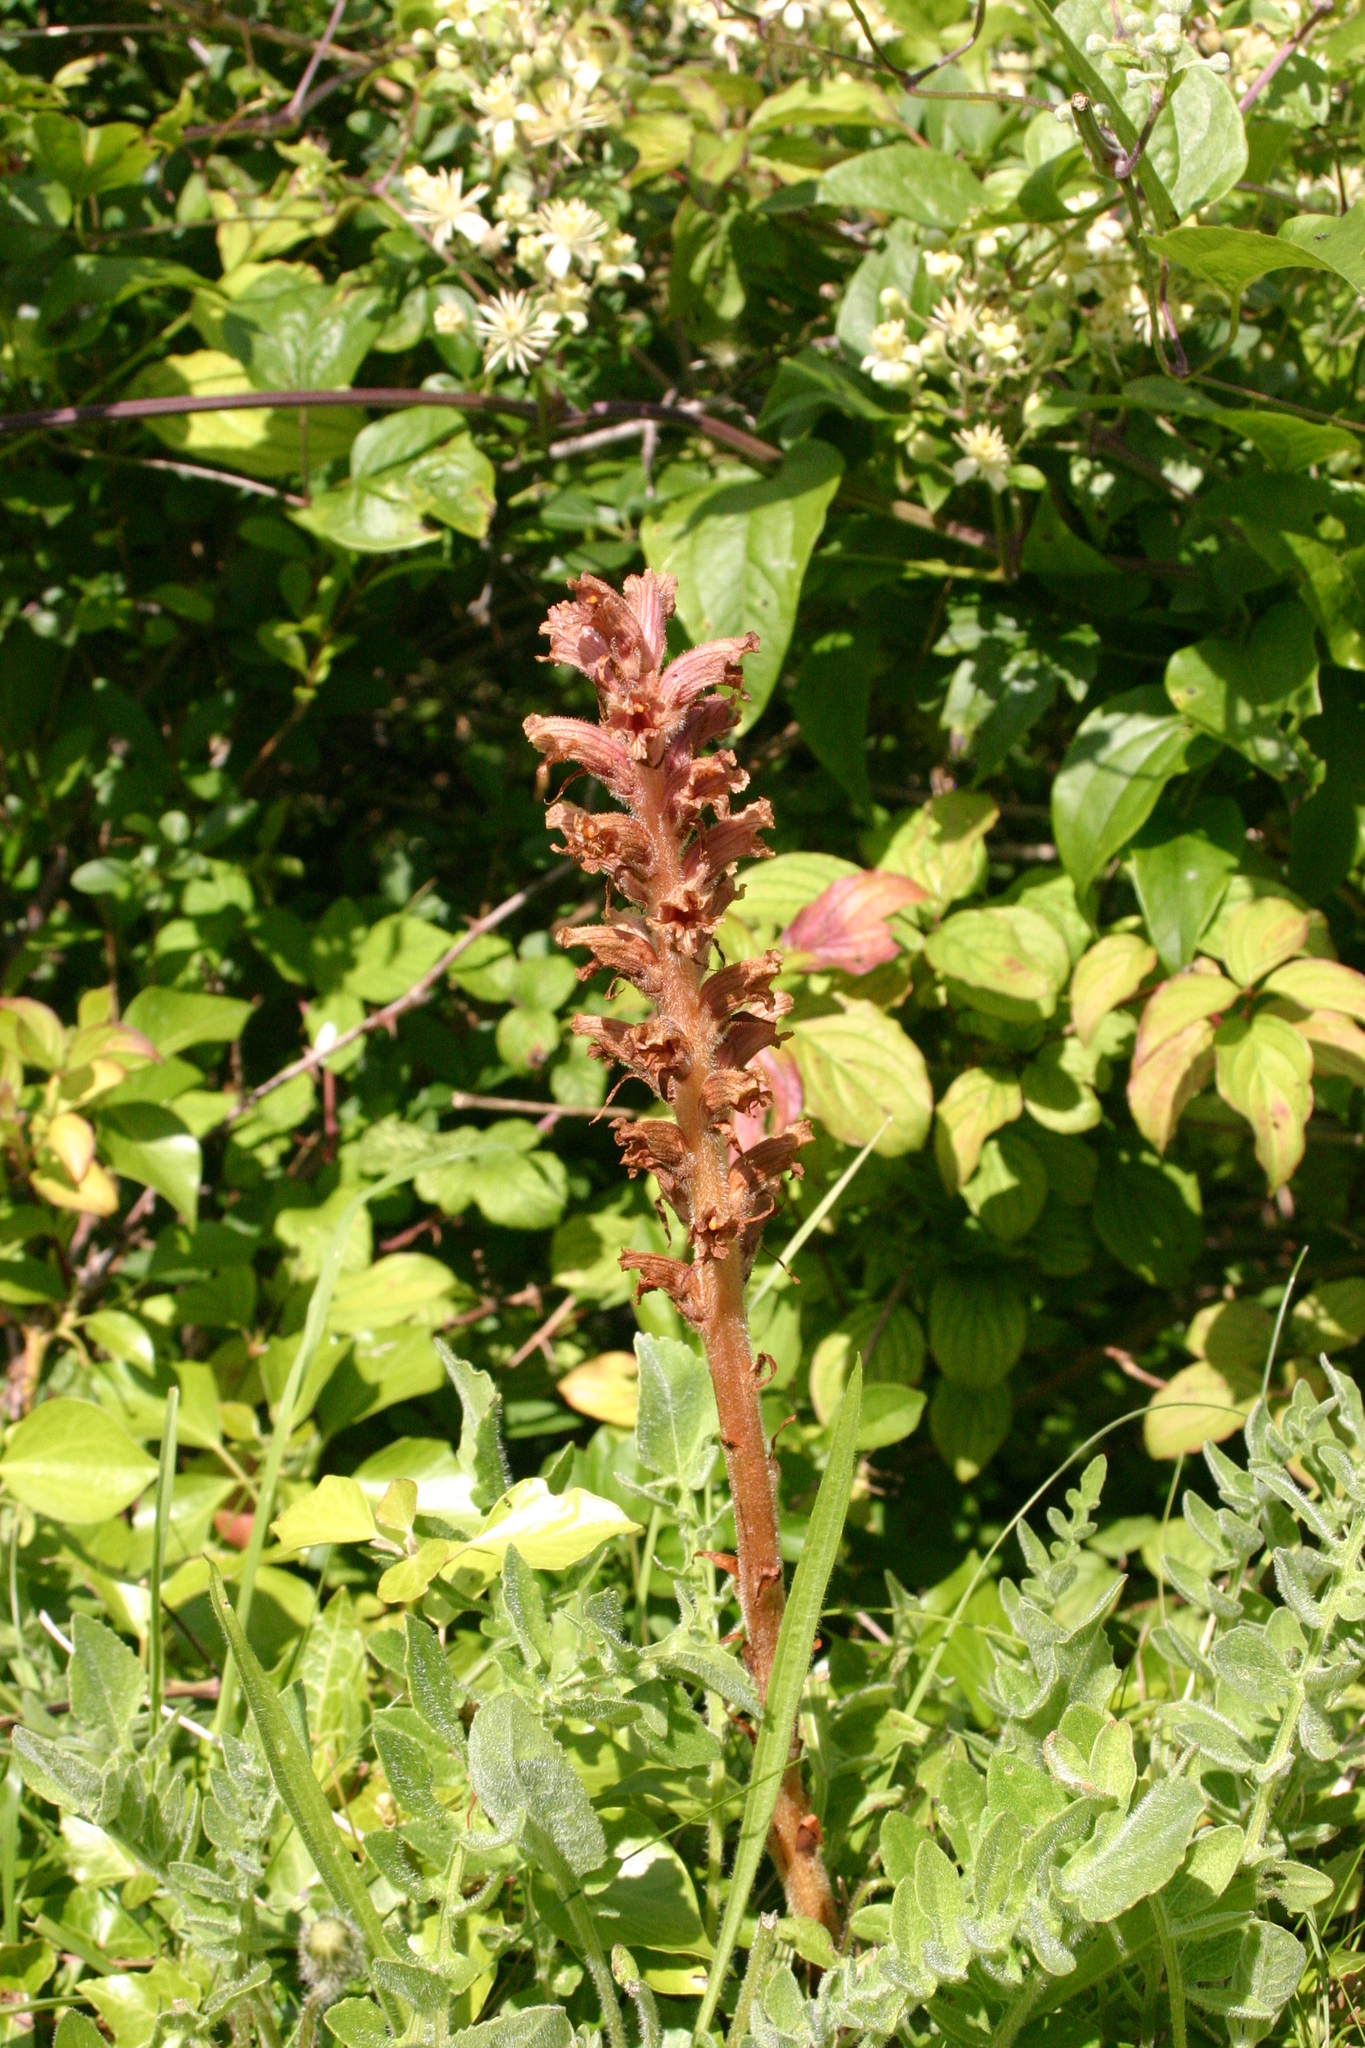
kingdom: Plantae
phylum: Tracheophyta
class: Magnoliopsida
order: Lamiales
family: Orobanchaceae
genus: Orobanche
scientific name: Orobanche elatior
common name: Knapweed broomrape
